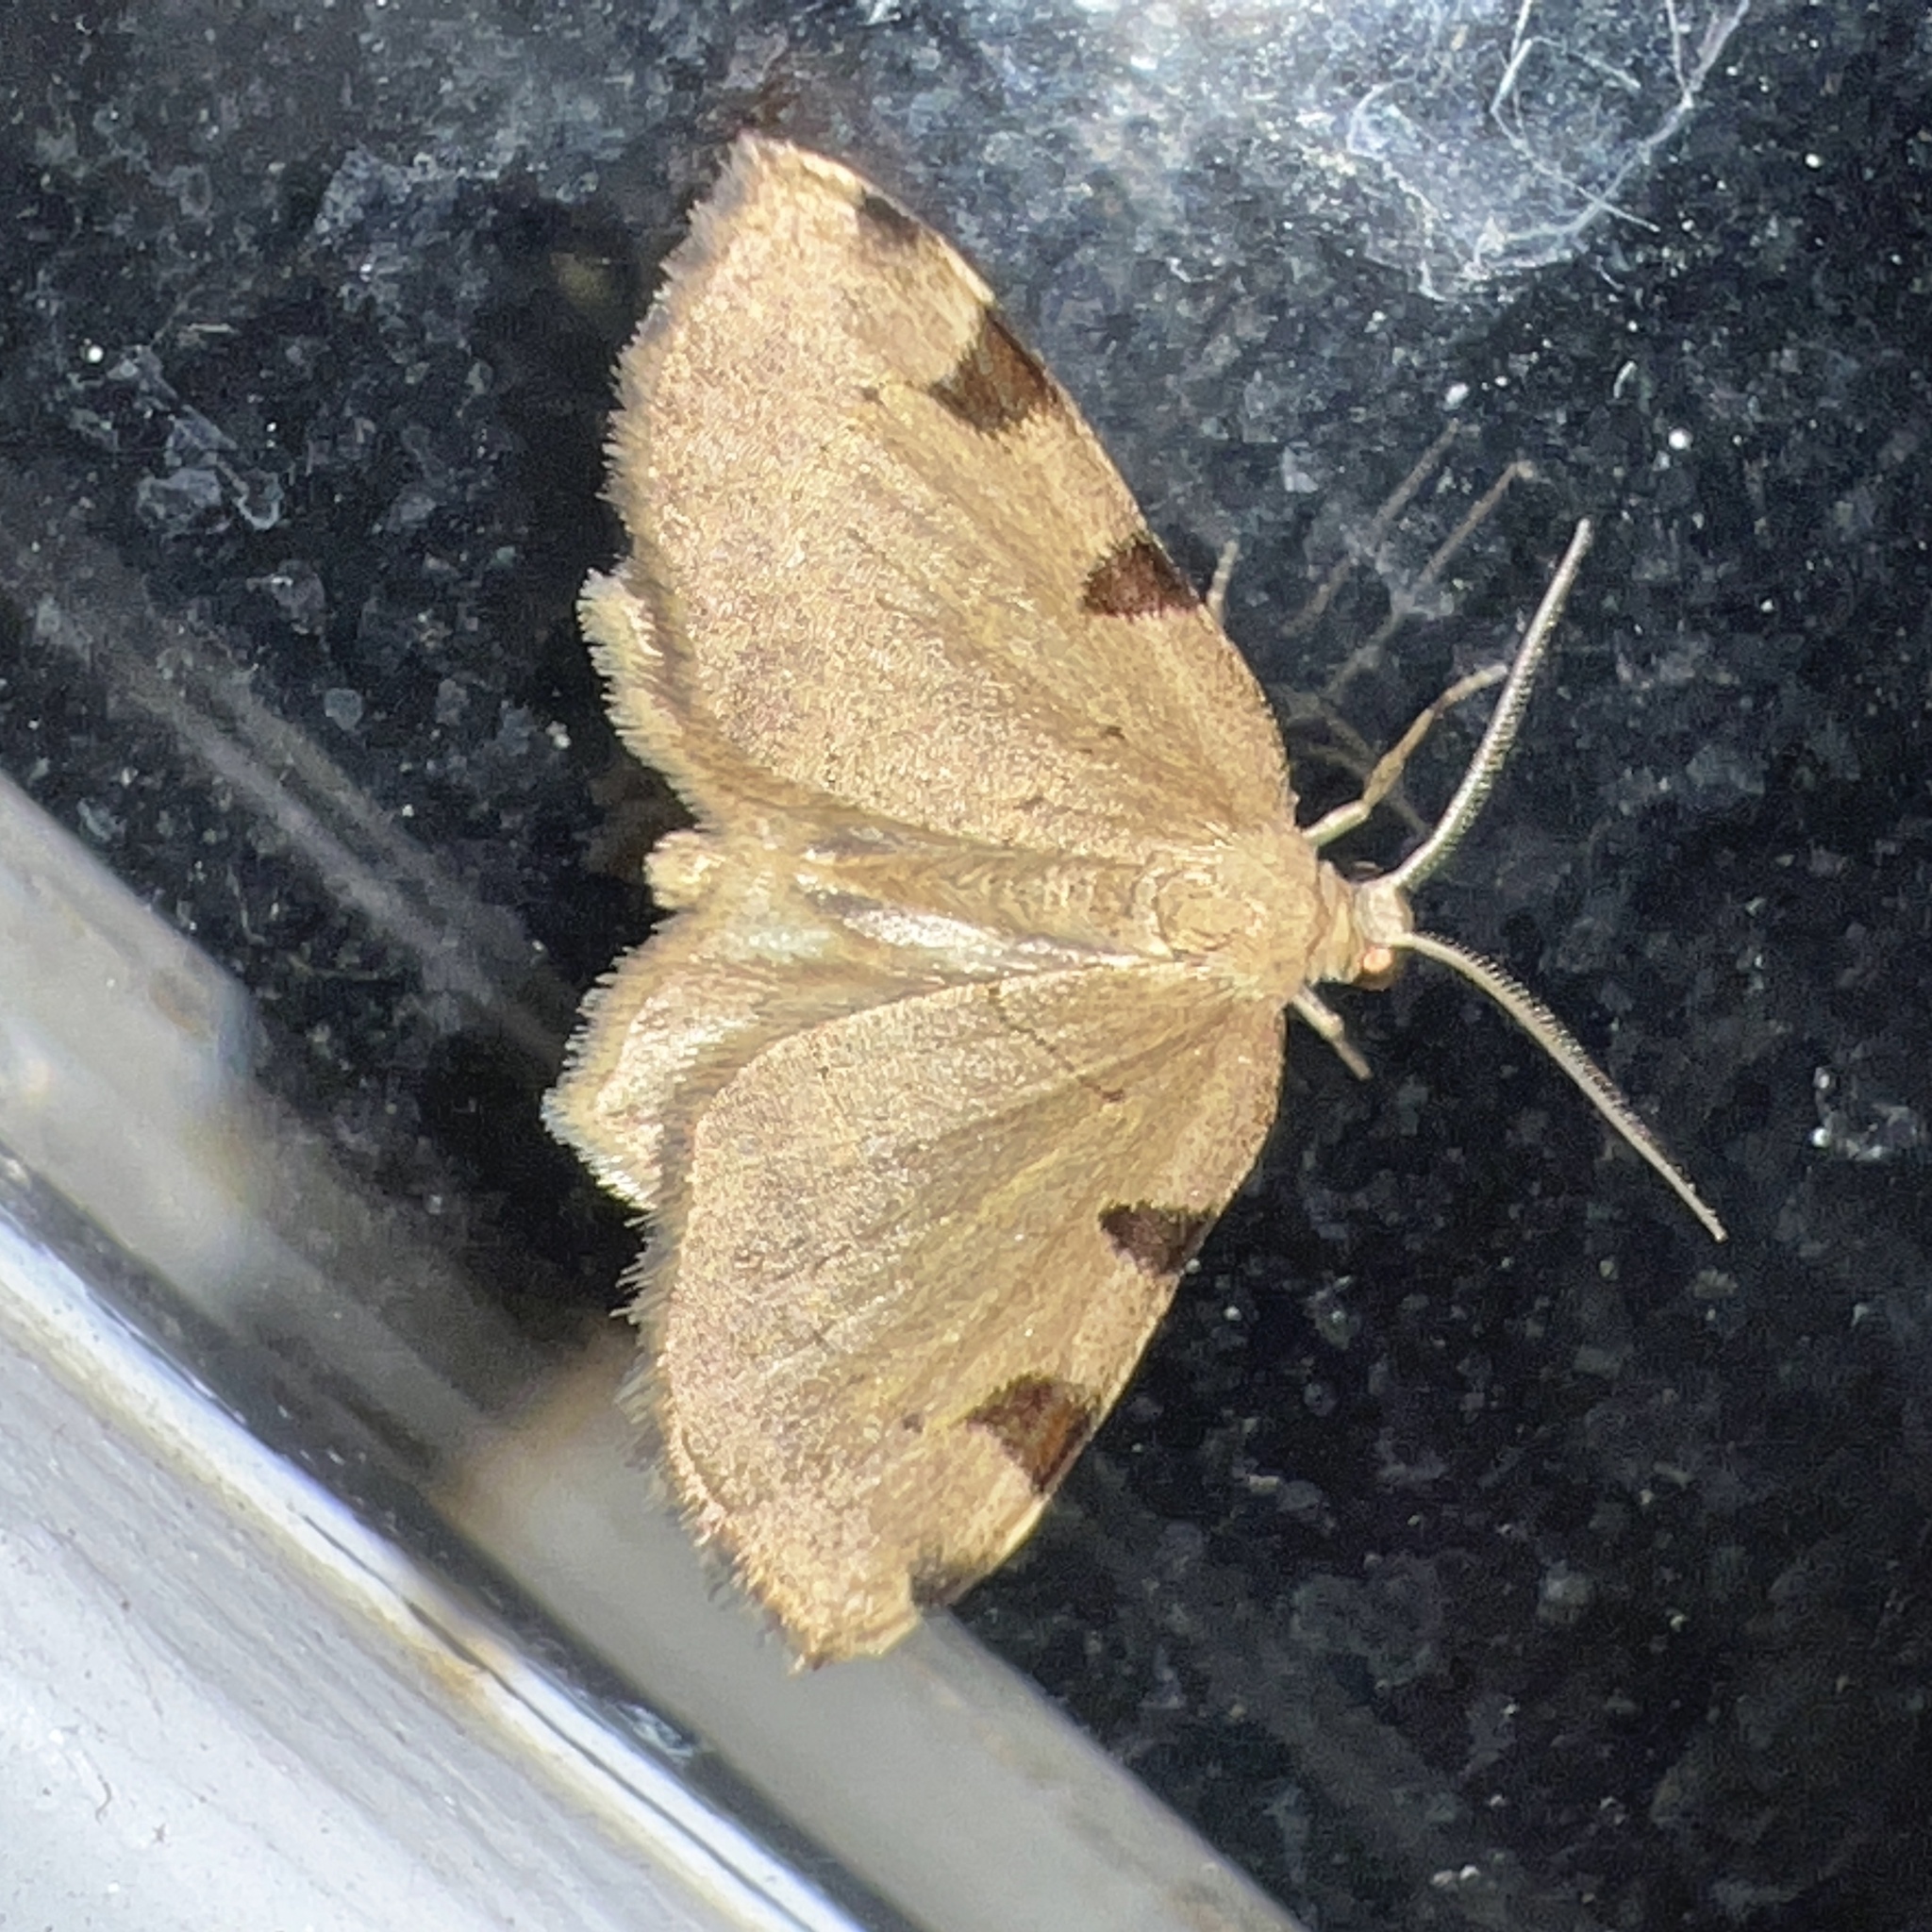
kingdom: Animalia
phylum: Arthropoda
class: Insecta
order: Lepidoptera
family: Geometridae
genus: Heterophleps
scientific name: Heterophleps triguttaria
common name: Three-spotted fillip
